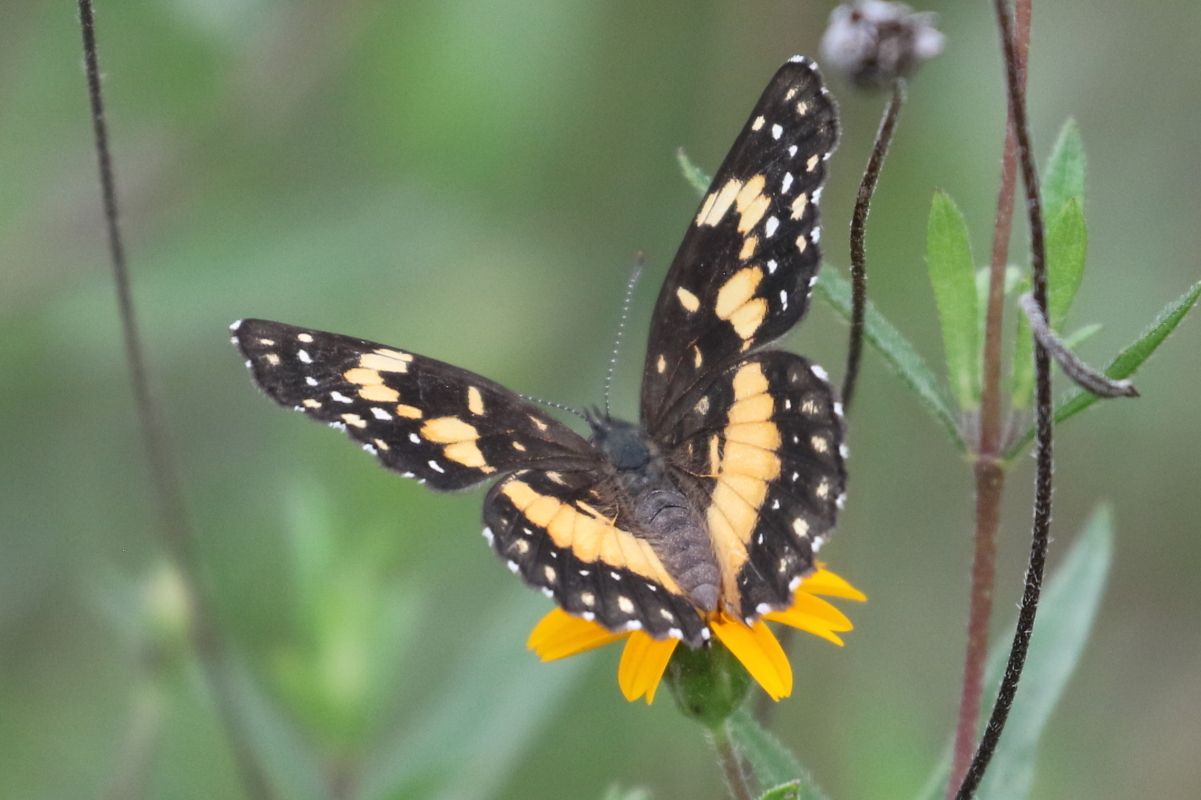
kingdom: Animalia
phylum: Arthropoda
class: Insecta
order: Lepidoptera
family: Nymphalidae
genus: Chlosyne
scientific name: Chlosyne lacinia
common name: Bordered patch
